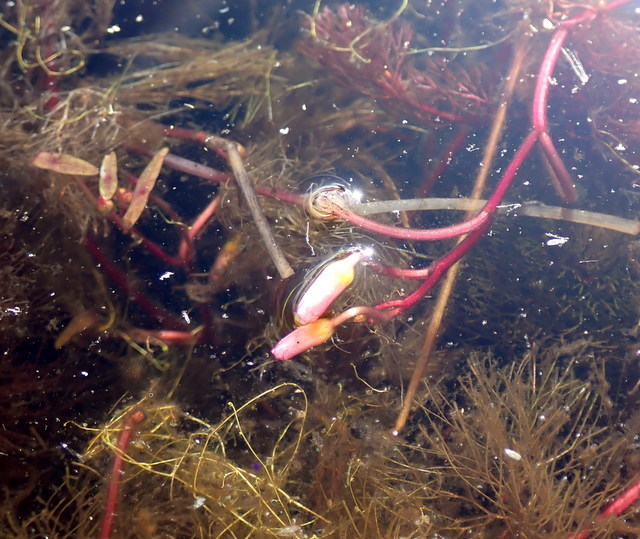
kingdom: Plantae
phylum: Tracheophyta
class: Magnoliopsida
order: Nymphaeales
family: Cabombaceae
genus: Cabomba
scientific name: Cabomba caroliniana
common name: Fanwort
